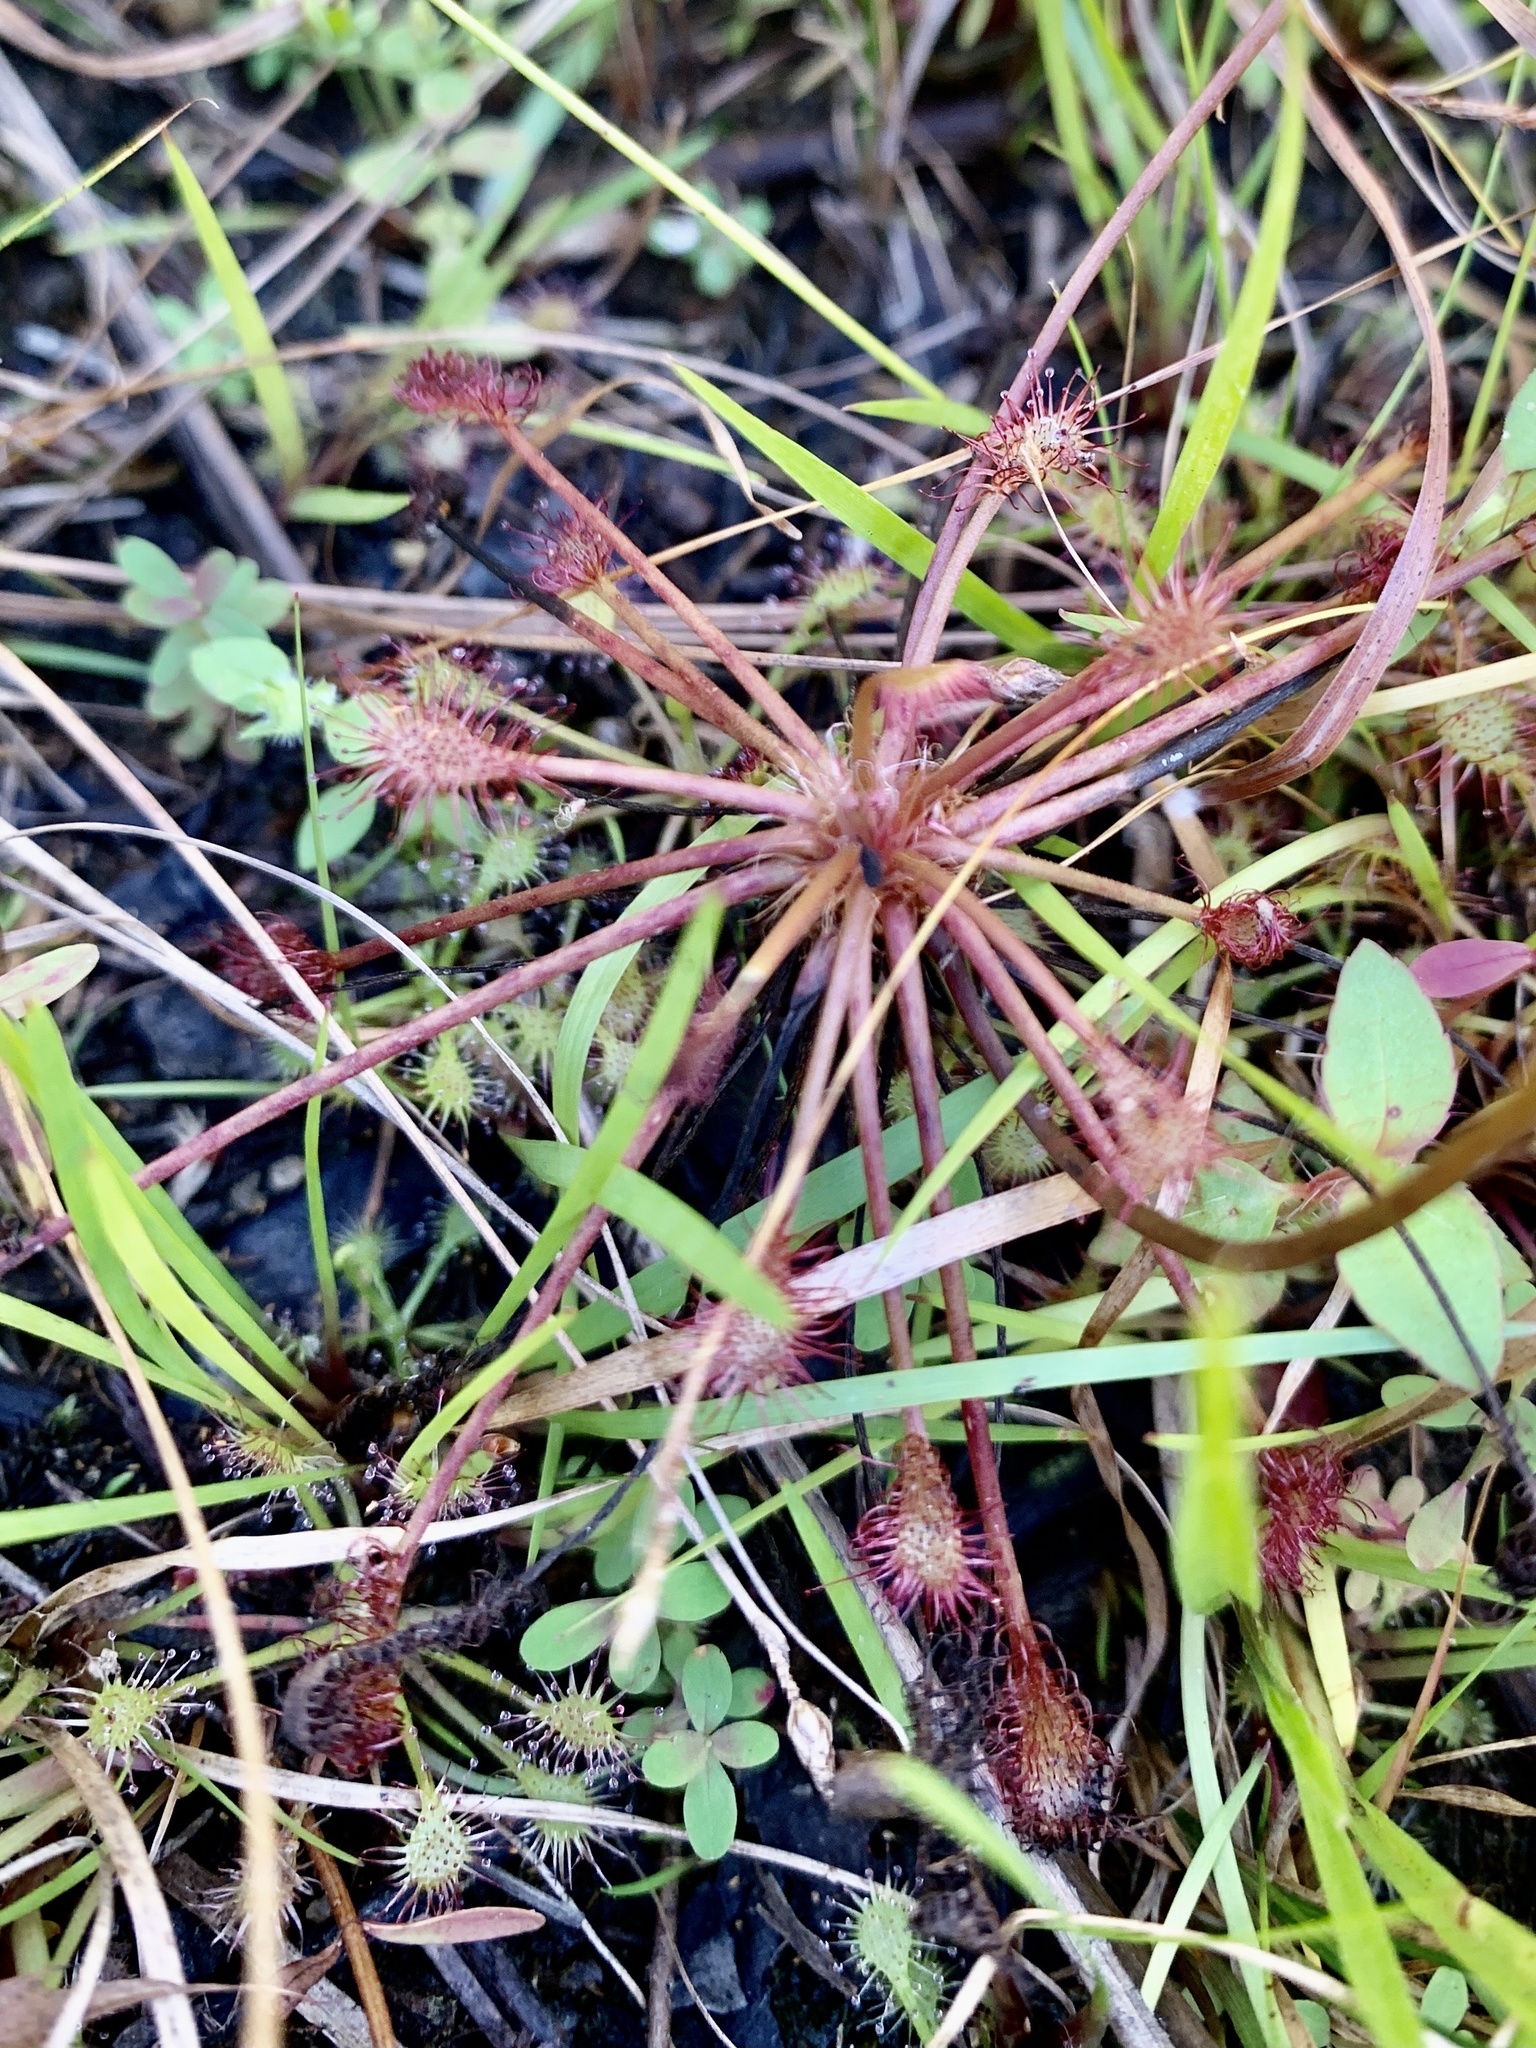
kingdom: Plantae
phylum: Tracheophyta
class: Magnoliopsida
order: Caryophyllales
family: Droseraceae
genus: Drosera
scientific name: Drosera intermedia
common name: Oblong-leaved sundew
